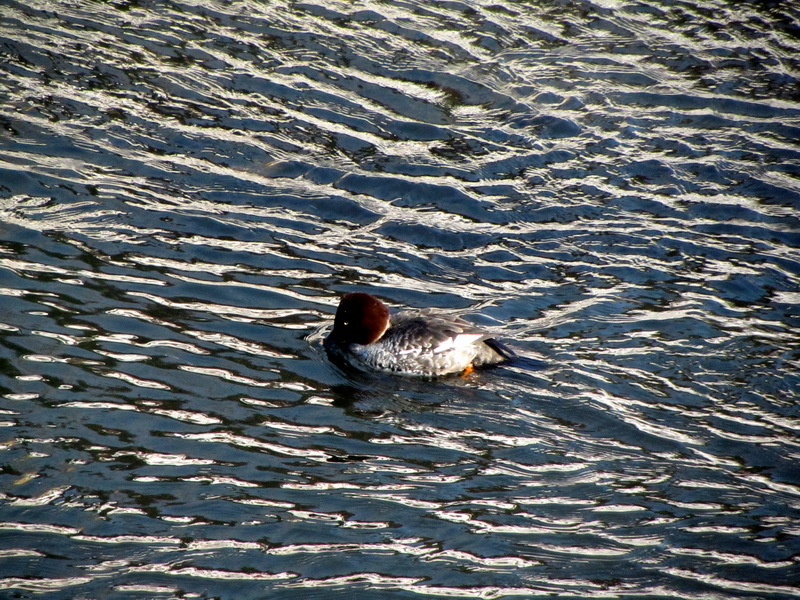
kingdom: Animalia
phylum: Chordata
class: Aves
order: Anseriformes
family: Anatidae
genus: Bucephala
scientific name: Bucephala clangula
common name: Common goldeneye
